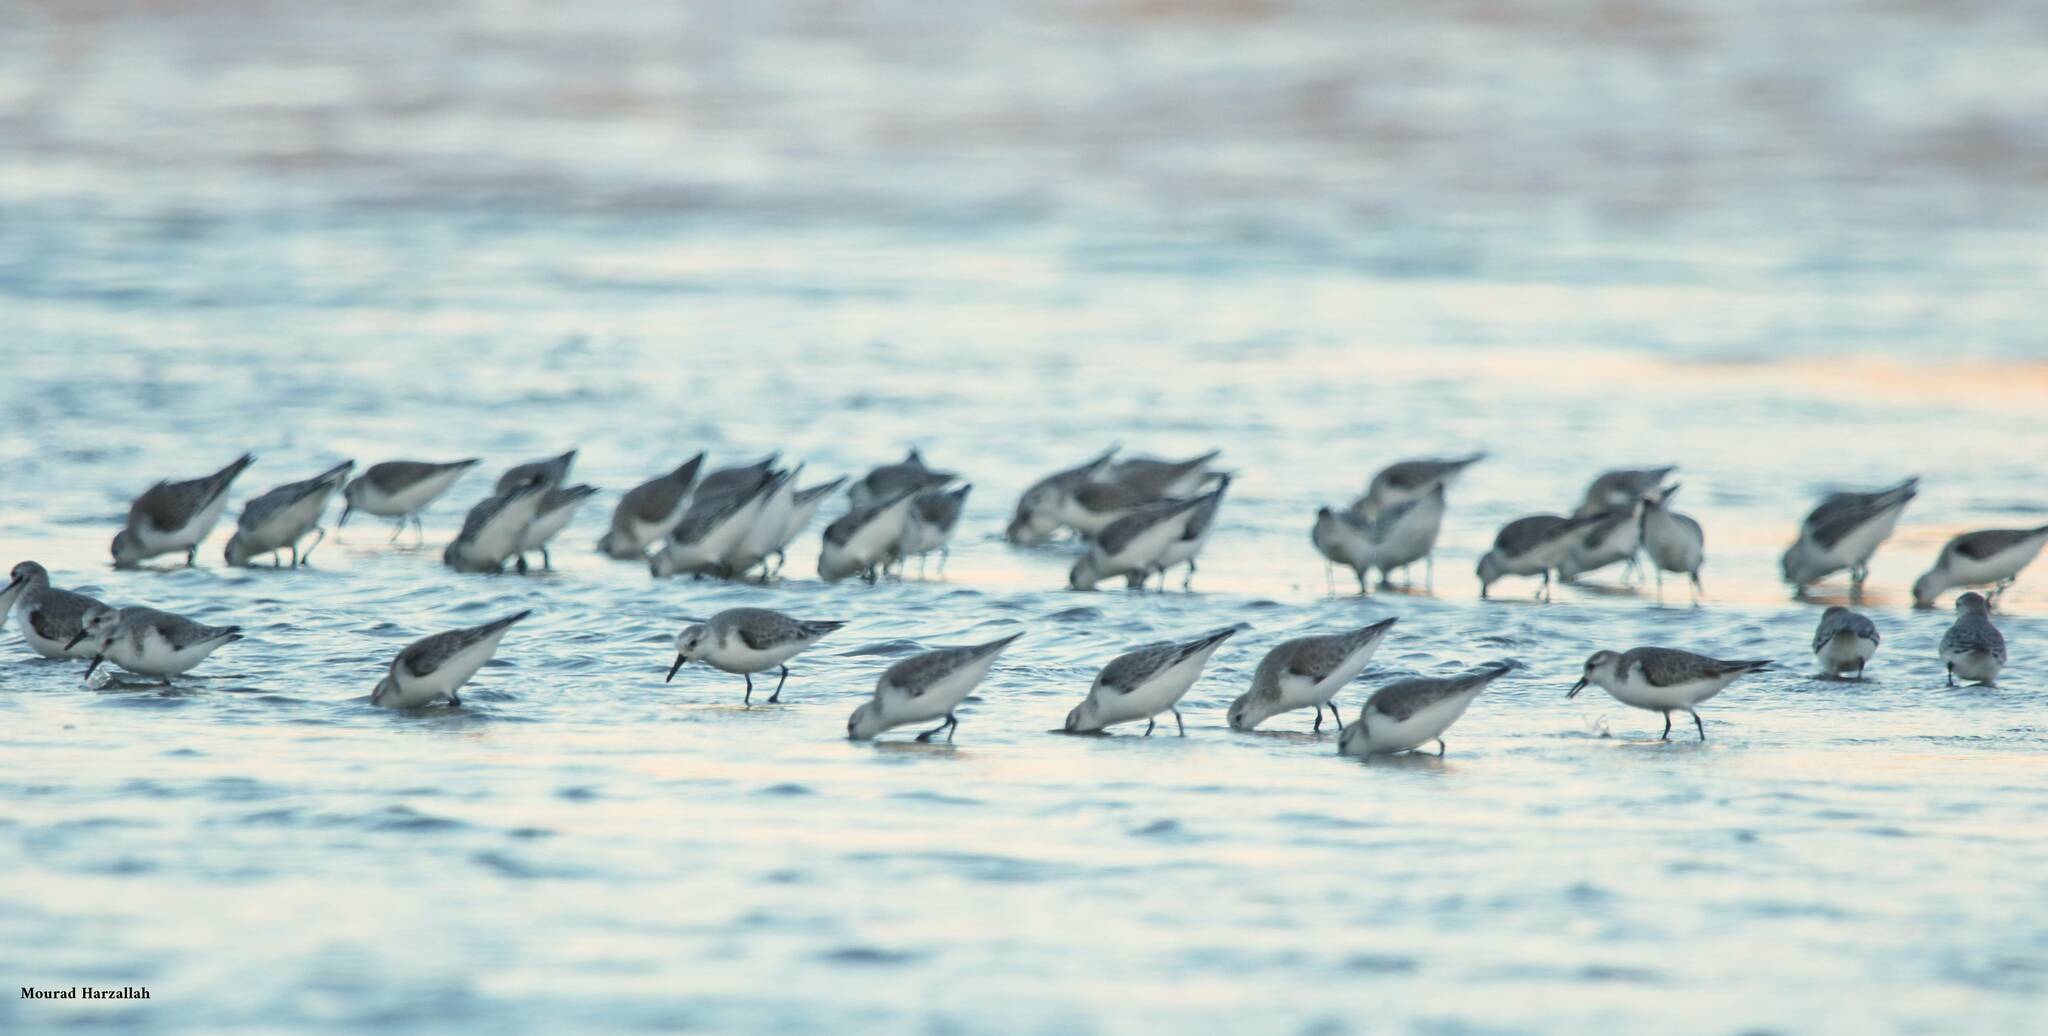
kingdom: Animalia
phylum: Chordata
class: Aves
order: Charadriiformes
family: Scolopacidae
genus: Calidris
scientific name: Calidris alba
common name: Sanderling
